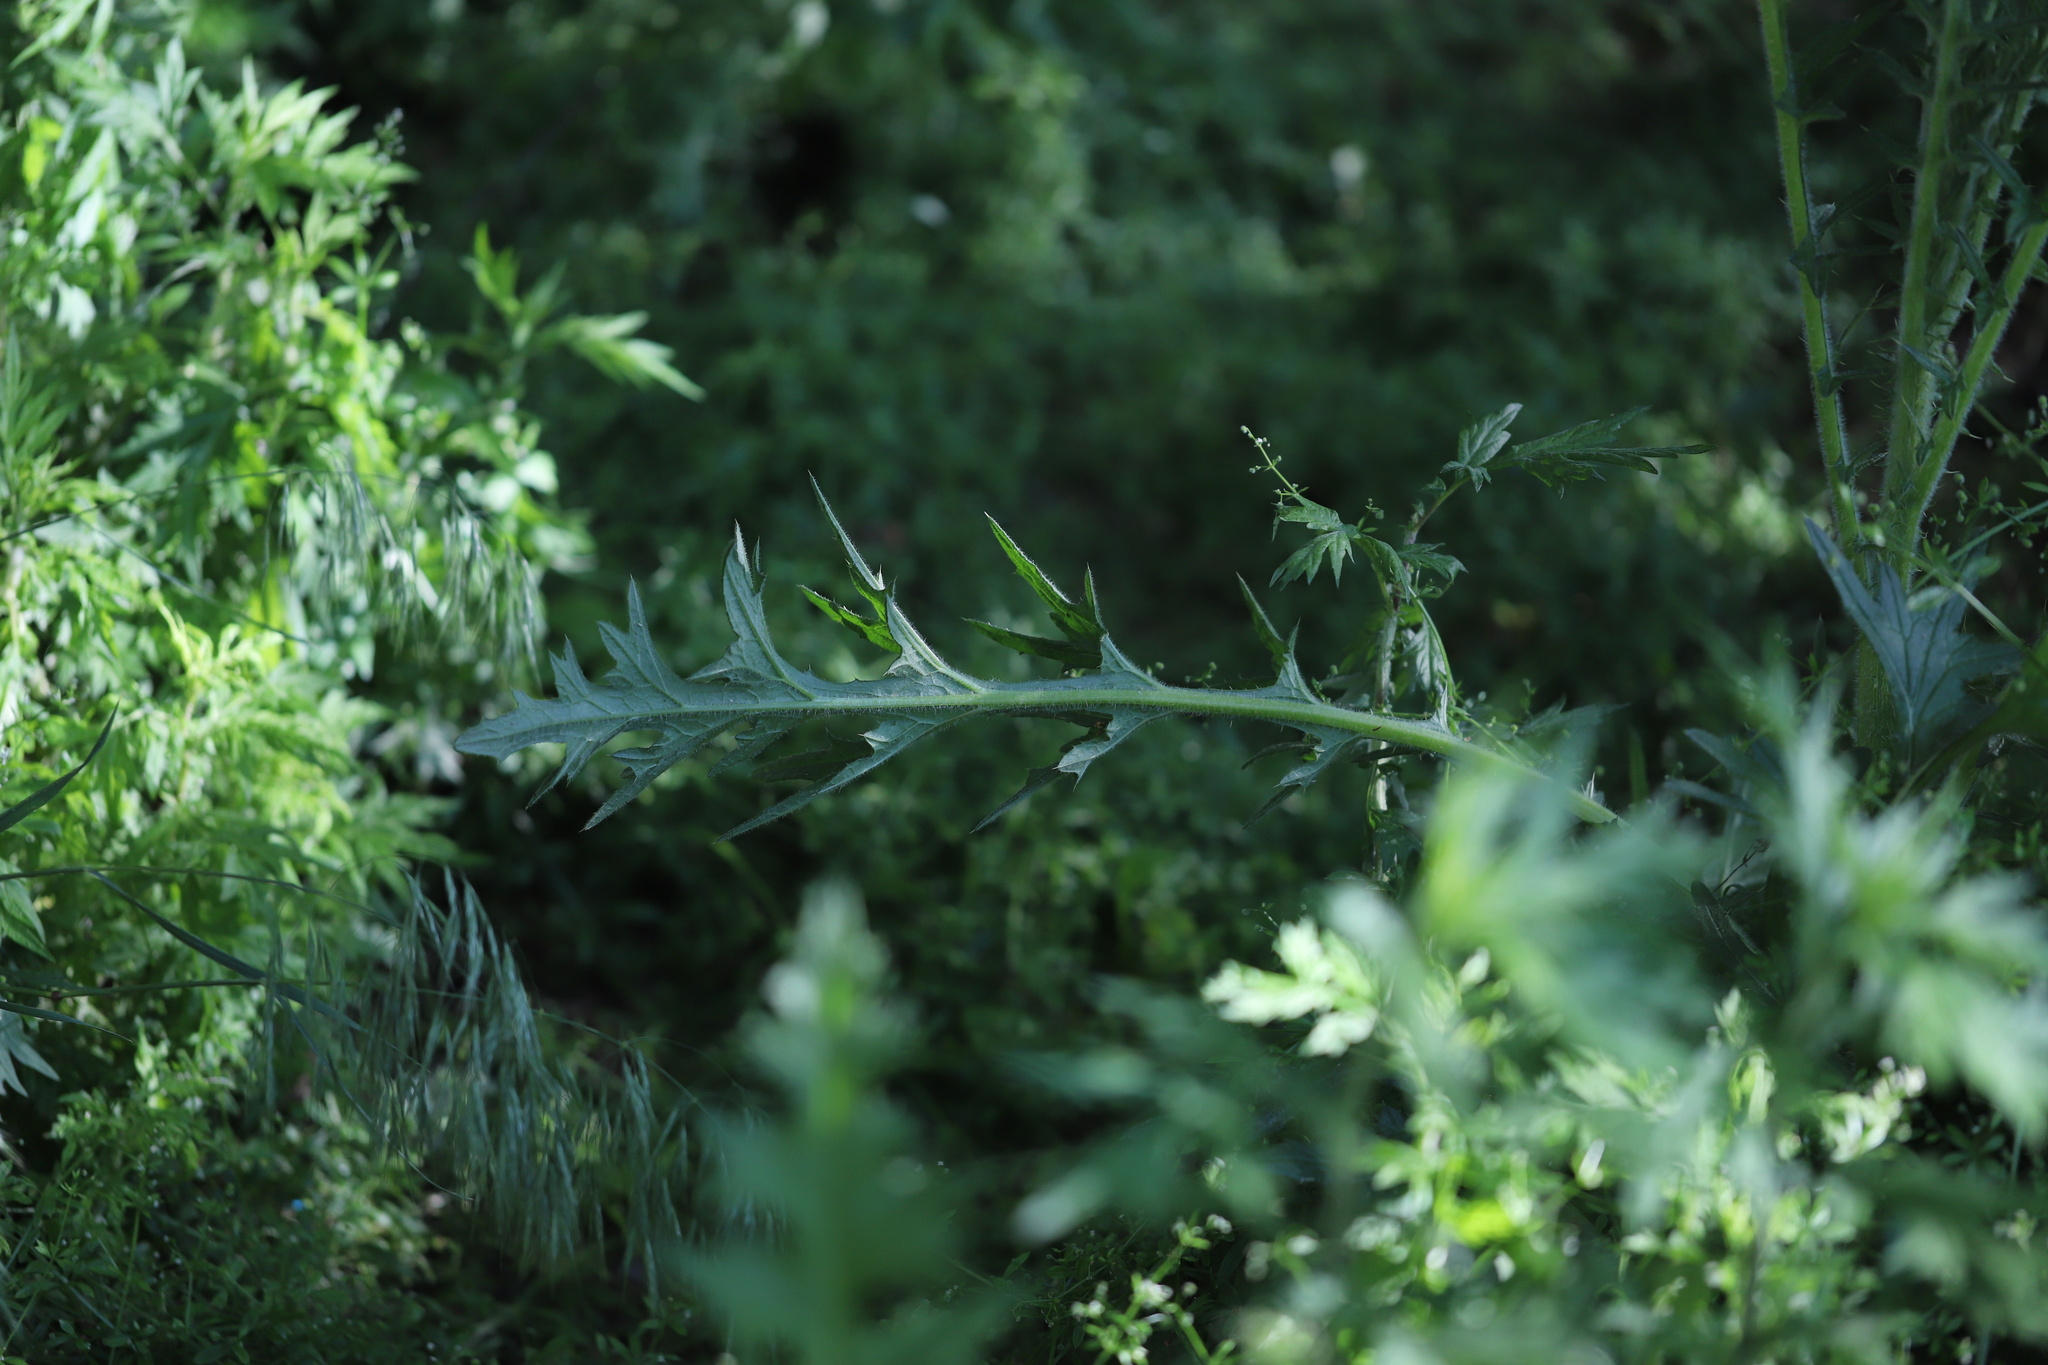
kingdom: Plantae
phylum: Tracheophyta
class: Magnoliopsida
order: Asterales
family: Asteraceae
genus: Cirsium
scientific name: Cirsium vulgare
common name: Bull thistle
